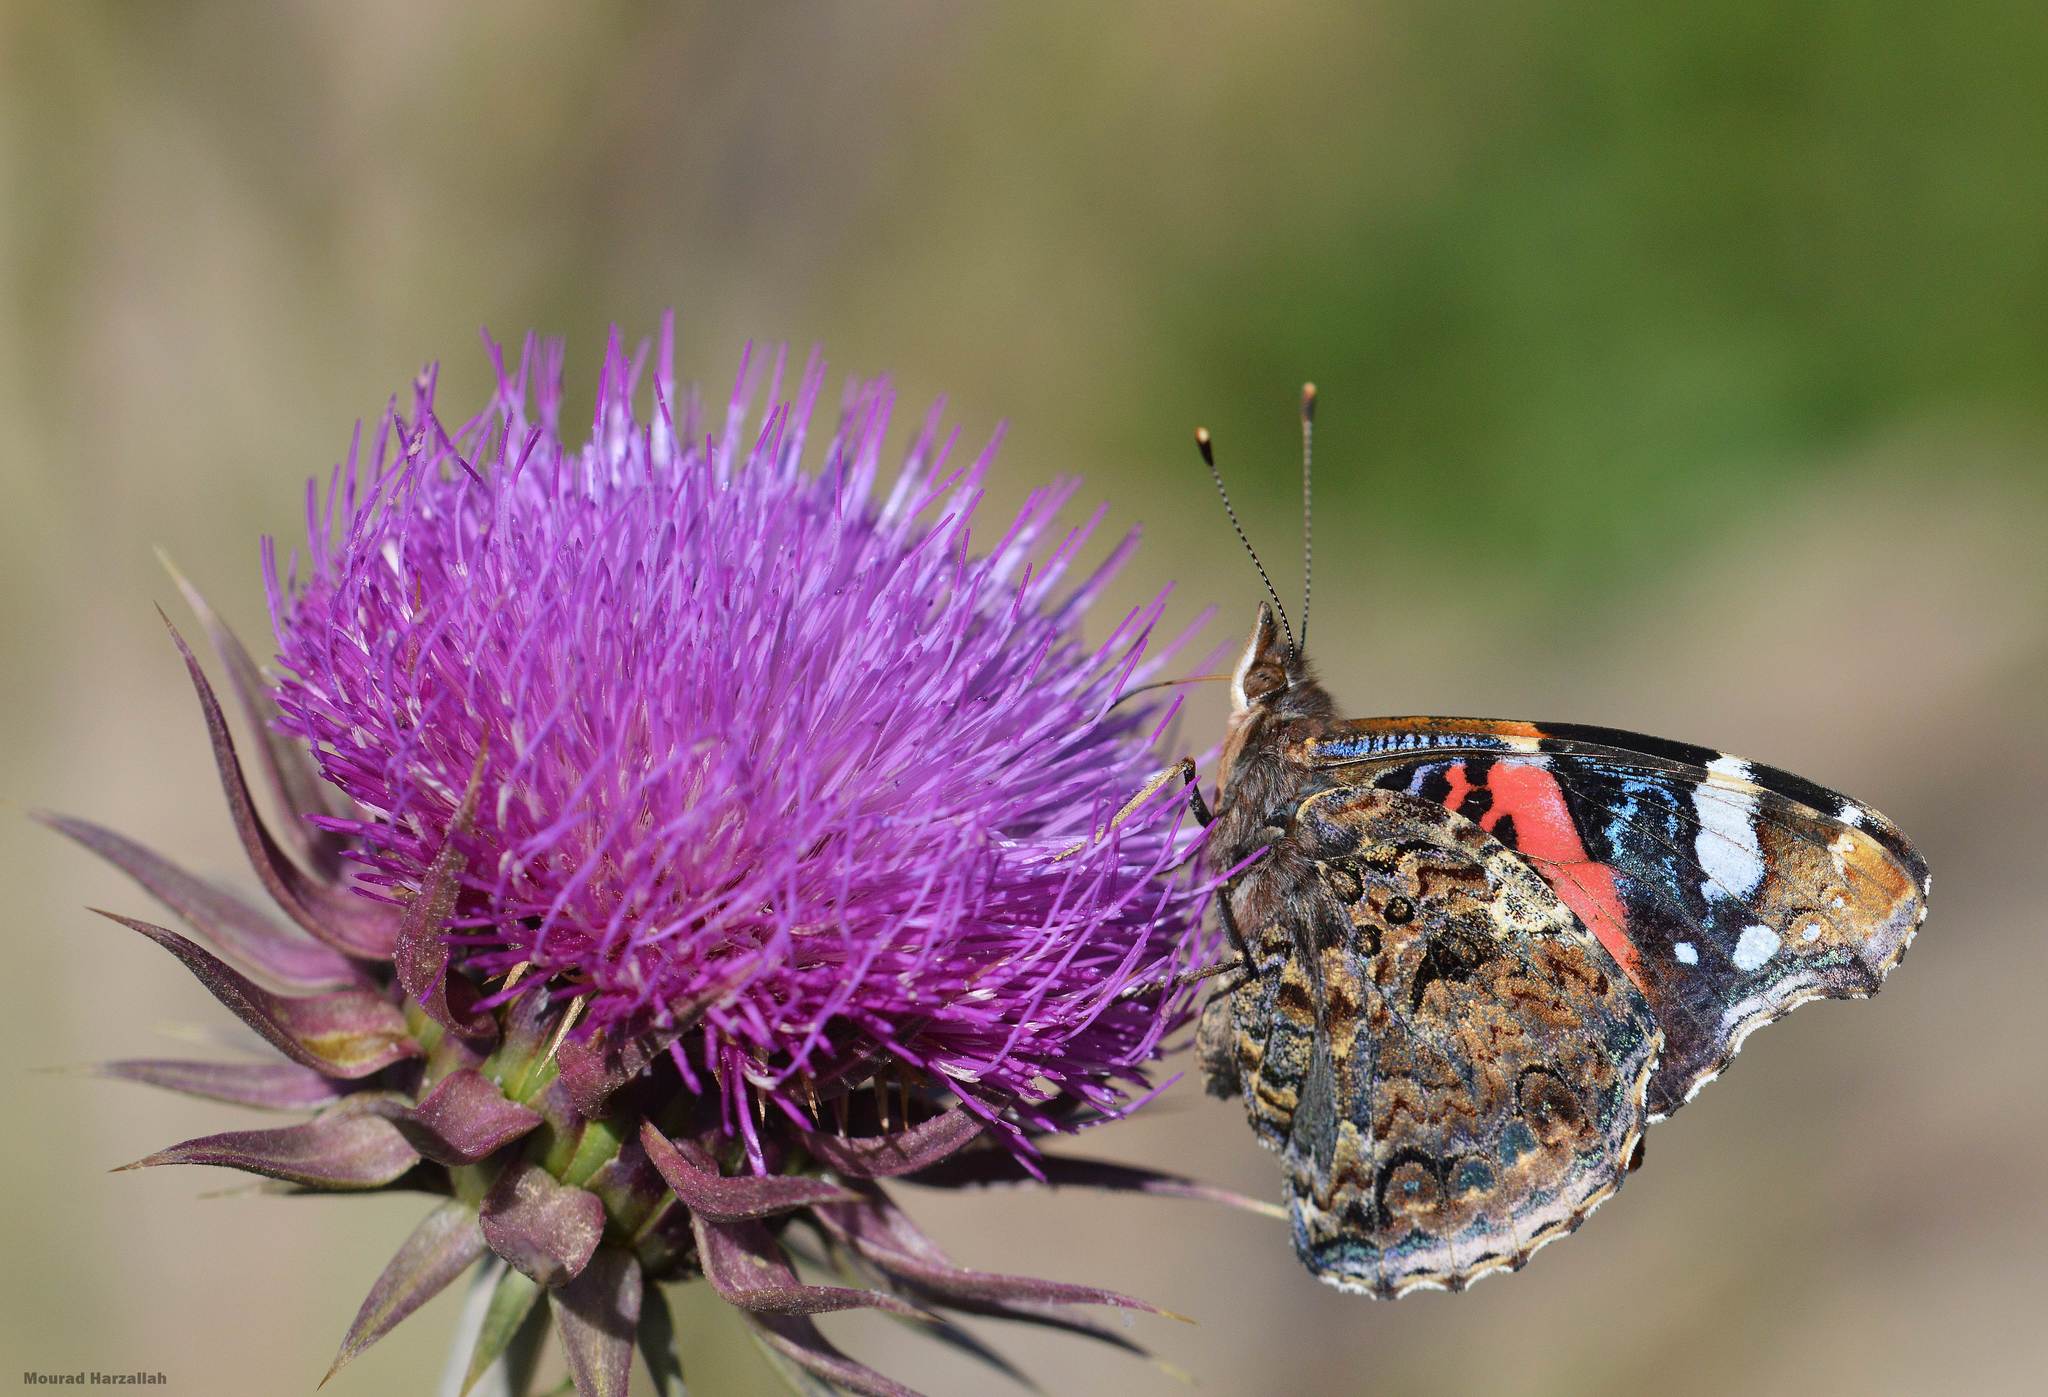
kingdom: Animalia
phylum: Arthropoda
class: Insecta
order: Lepidoptera
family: Nymphalidae
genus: Vanessa
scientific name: Vanessa atalanta
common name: Red admiral
